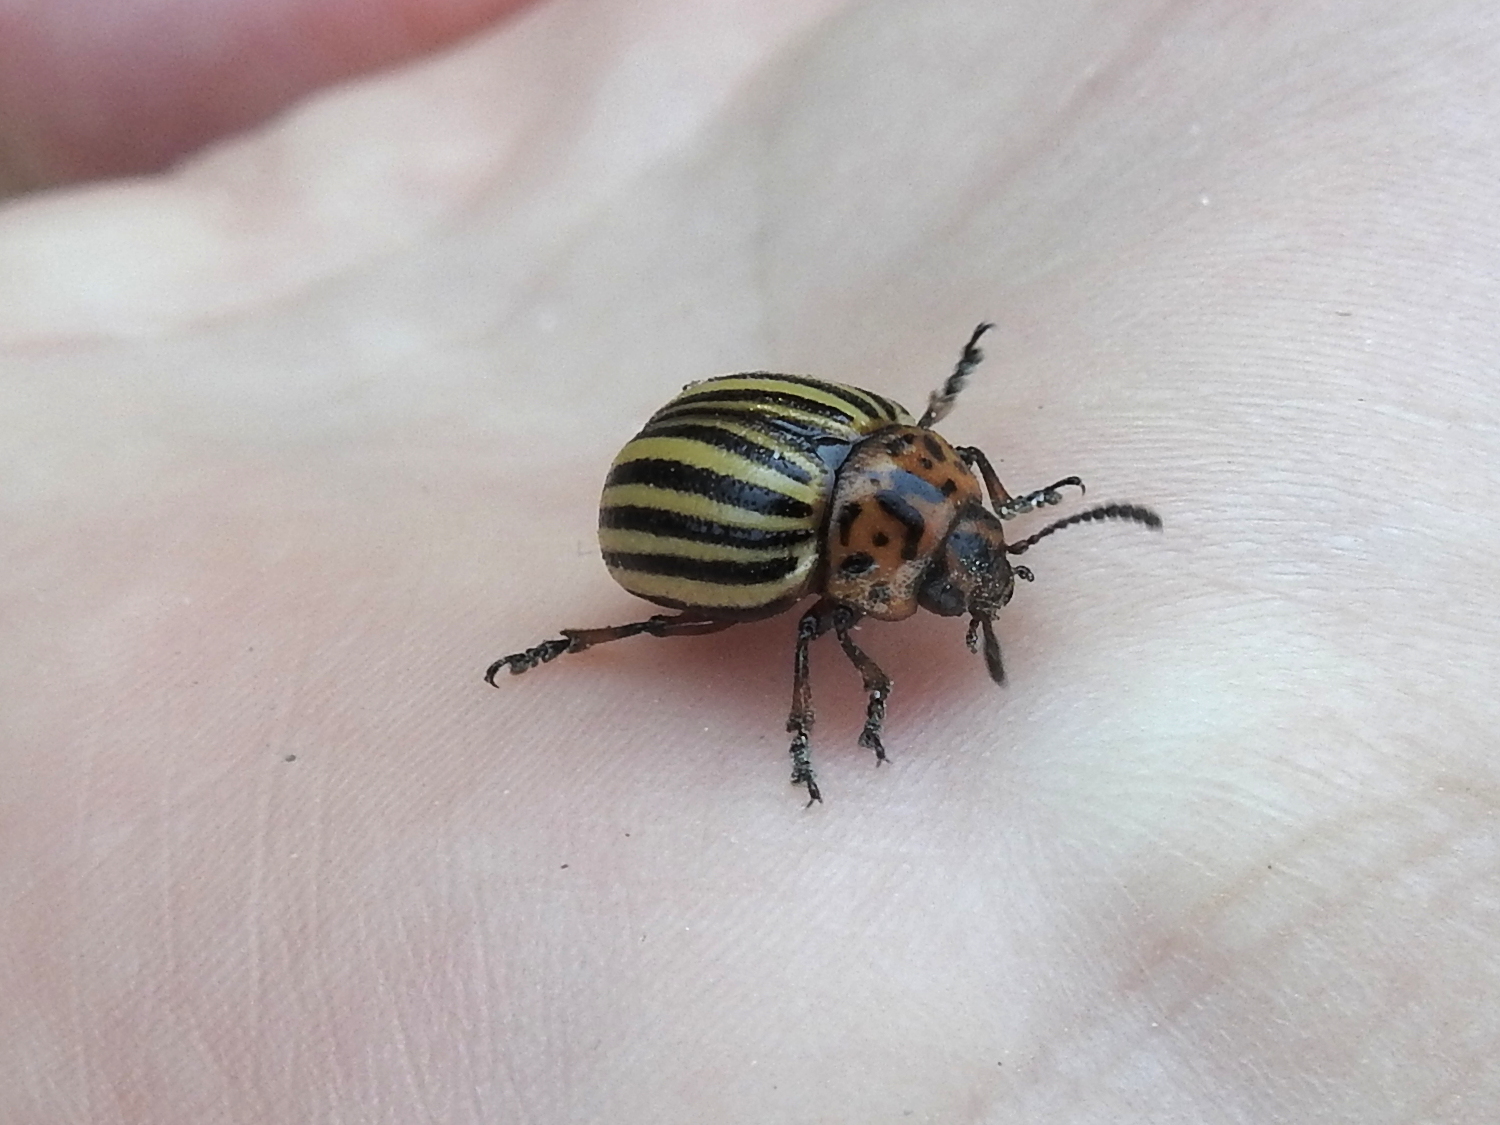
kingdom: Animalia
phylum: Arthropoda
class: Insecta
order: Coleoptera
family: Chrysomelidae
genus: Leptinotarsa
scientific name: Leptinotarsa decemlineata
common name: Colorado potato beetle
